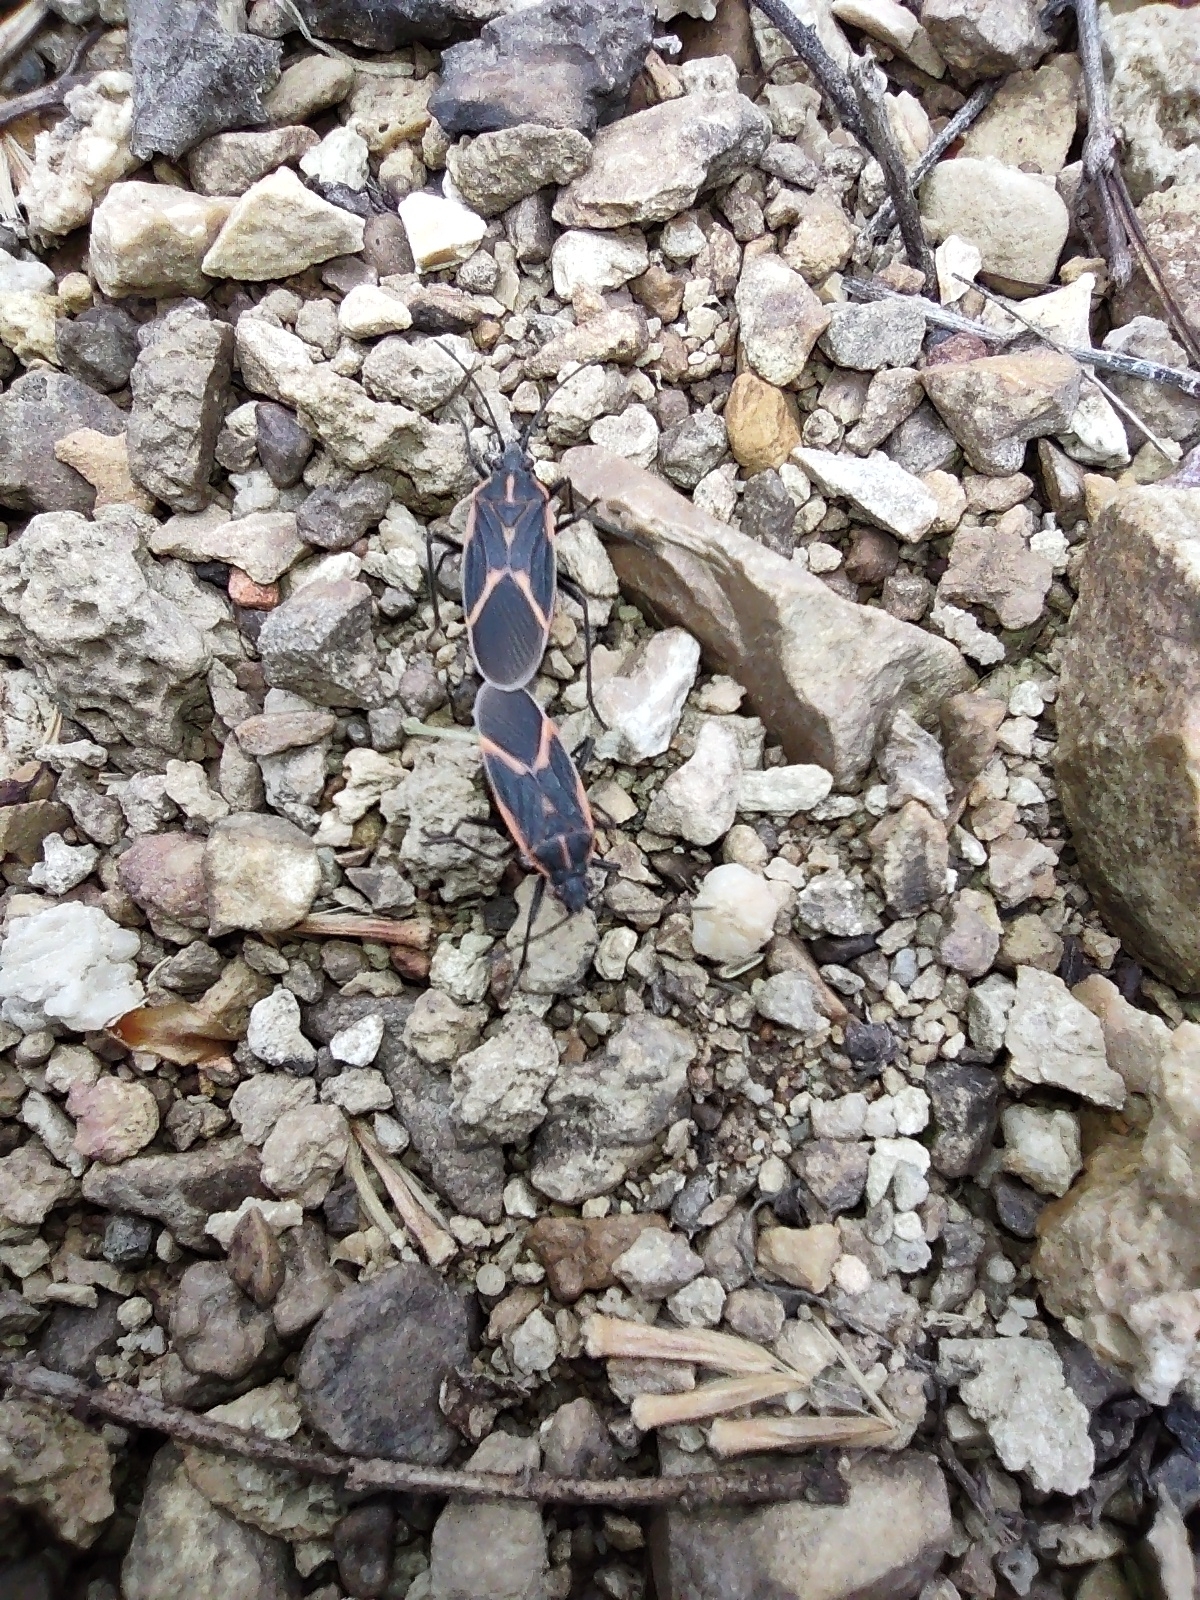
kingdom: Animalia
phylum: Arthropoda
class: Insecta
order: Hemiptera
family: Rhopalidae
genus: Boisea
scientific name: Boisea trivittata
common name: Boxelder bug
